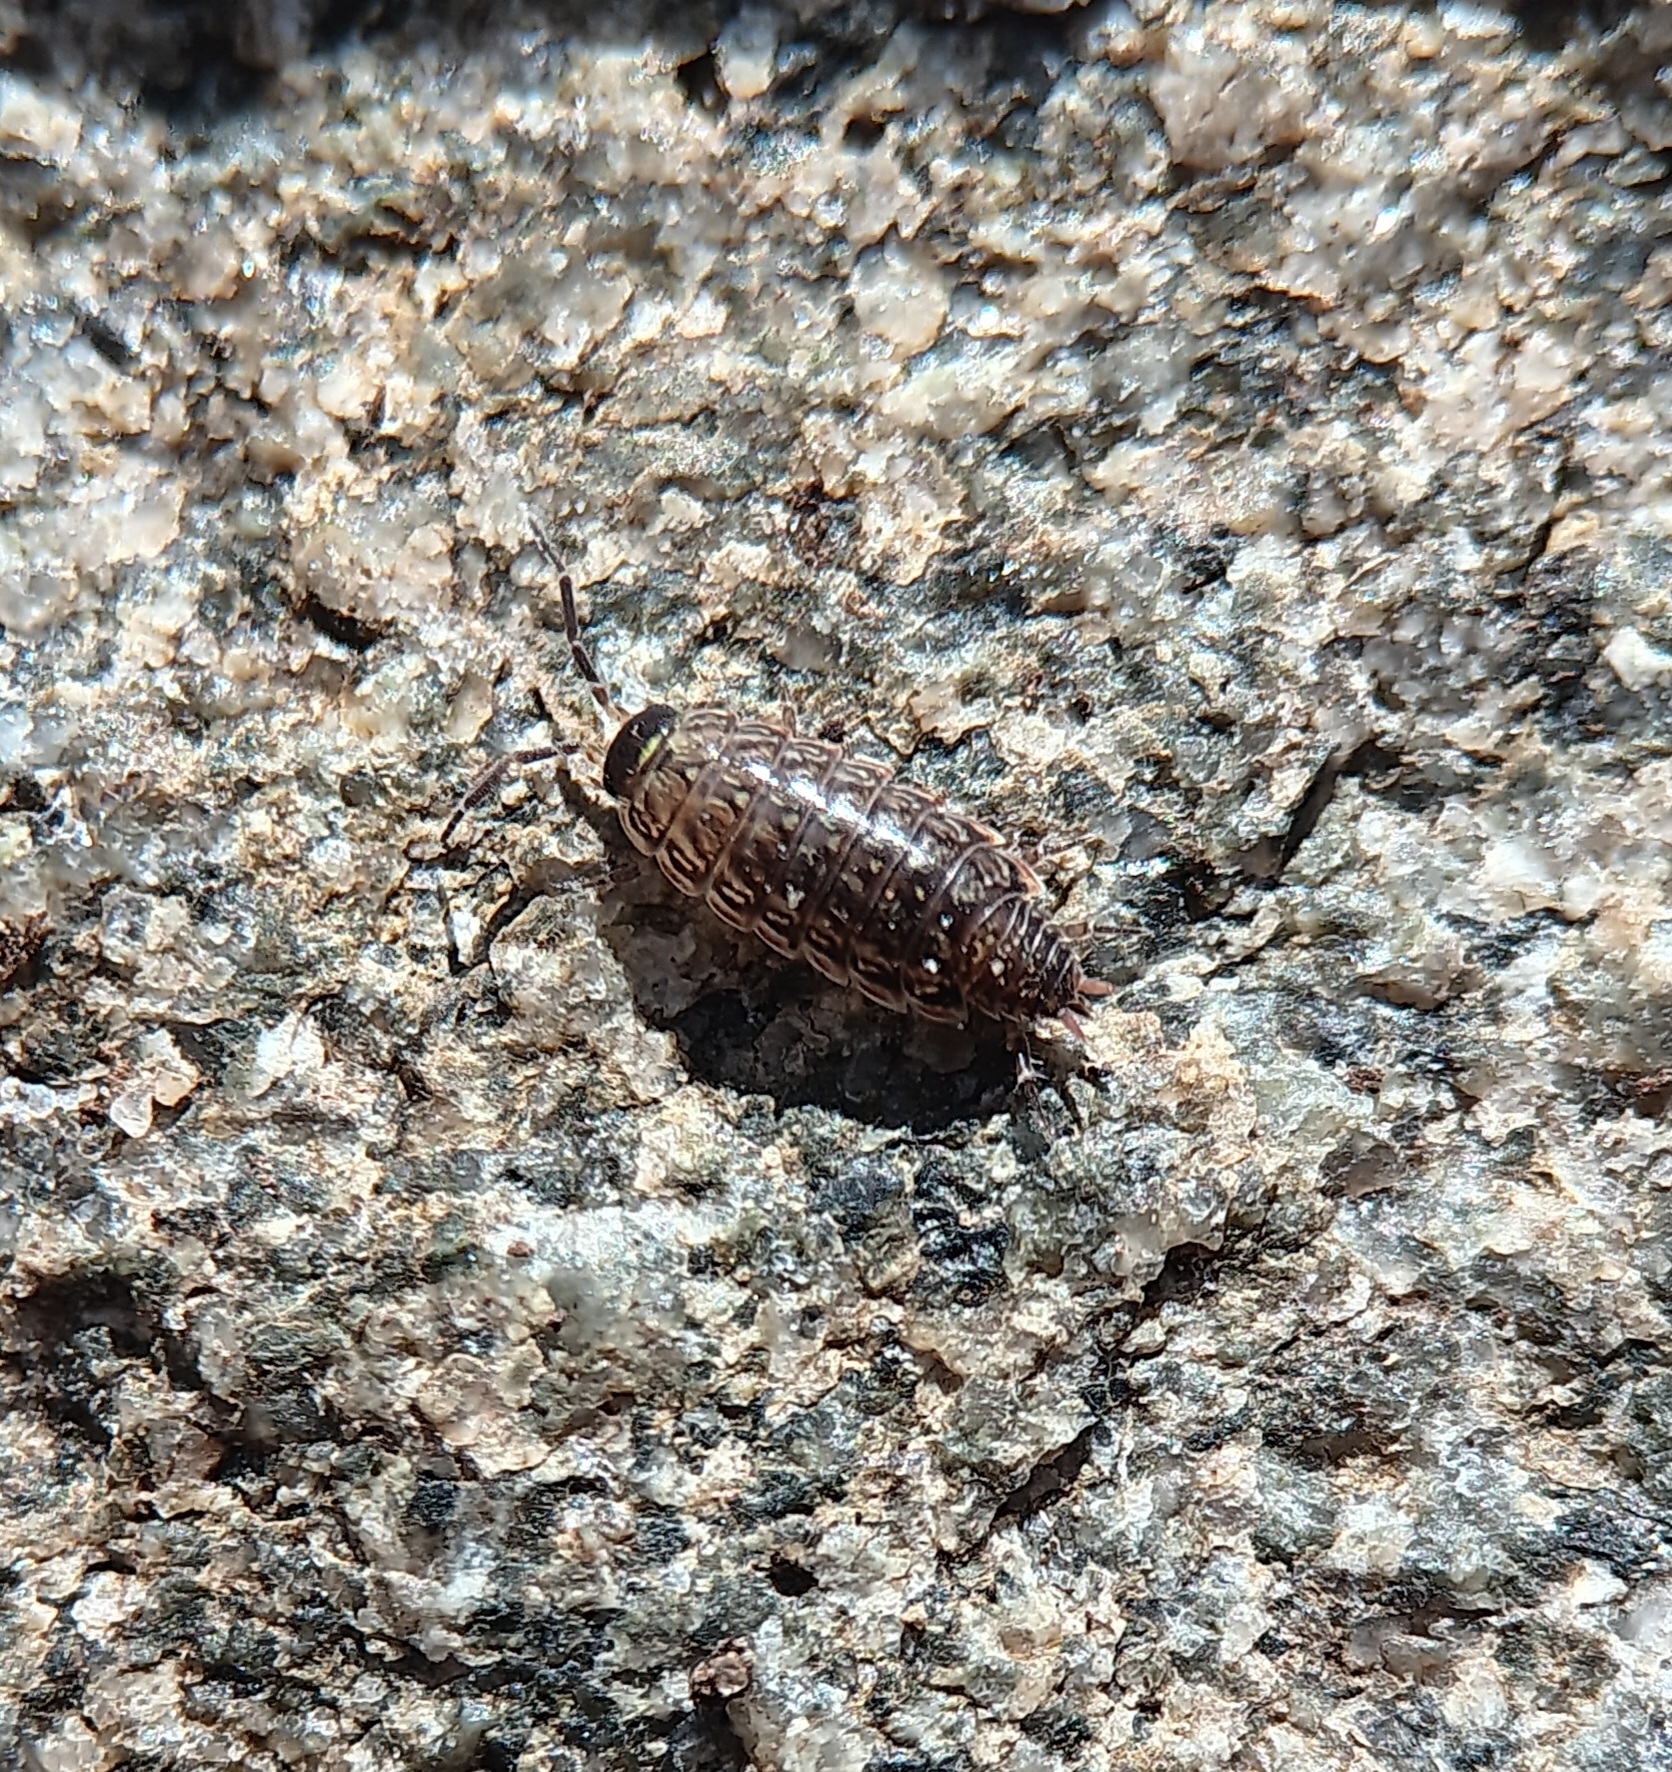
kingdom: Animalia
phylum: Arthropoda
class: Malacostraca
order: Isopoda
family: Philosciidae
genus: Philoscia
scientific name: Philoscia muscorum
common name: Common striped woodlouse
